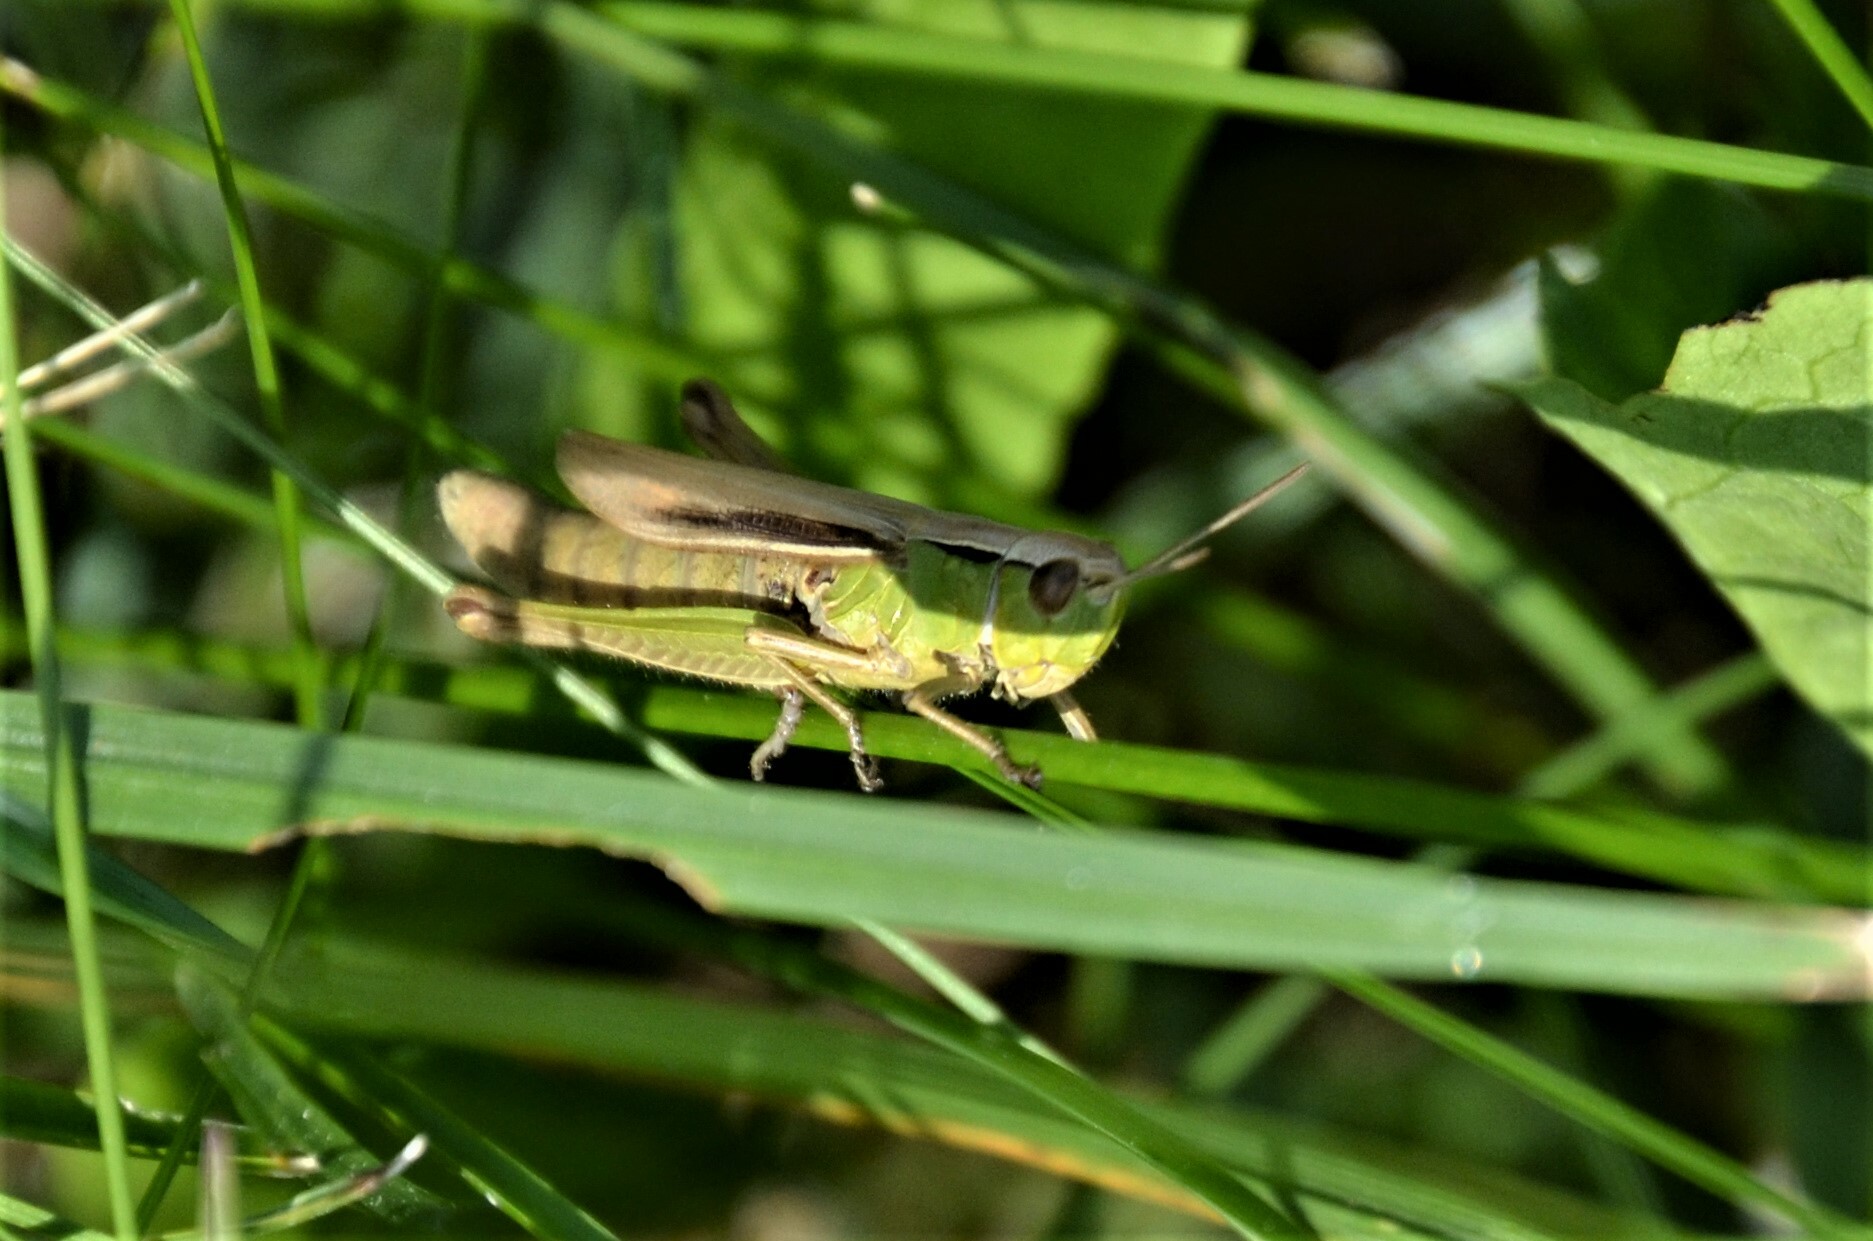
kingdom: Animalia
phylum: Arthropoda
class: Insecta
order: Orthoptera
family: Acrididae
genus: Chorthippus
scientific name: Chorthippus albomarginatus
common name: Lesser marsh grasshopper
